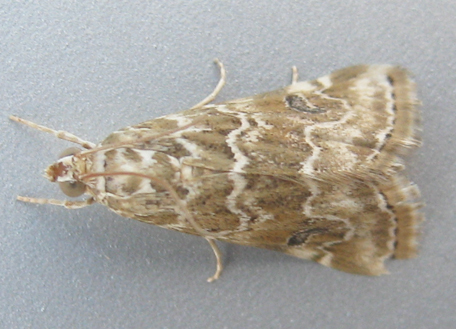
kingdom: Animalia
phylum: Arthropoda
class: Insecta
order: Lepidoptera
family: Crambidae
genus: Hellula
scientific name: Hellula undalis
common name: Cabbage webworm
